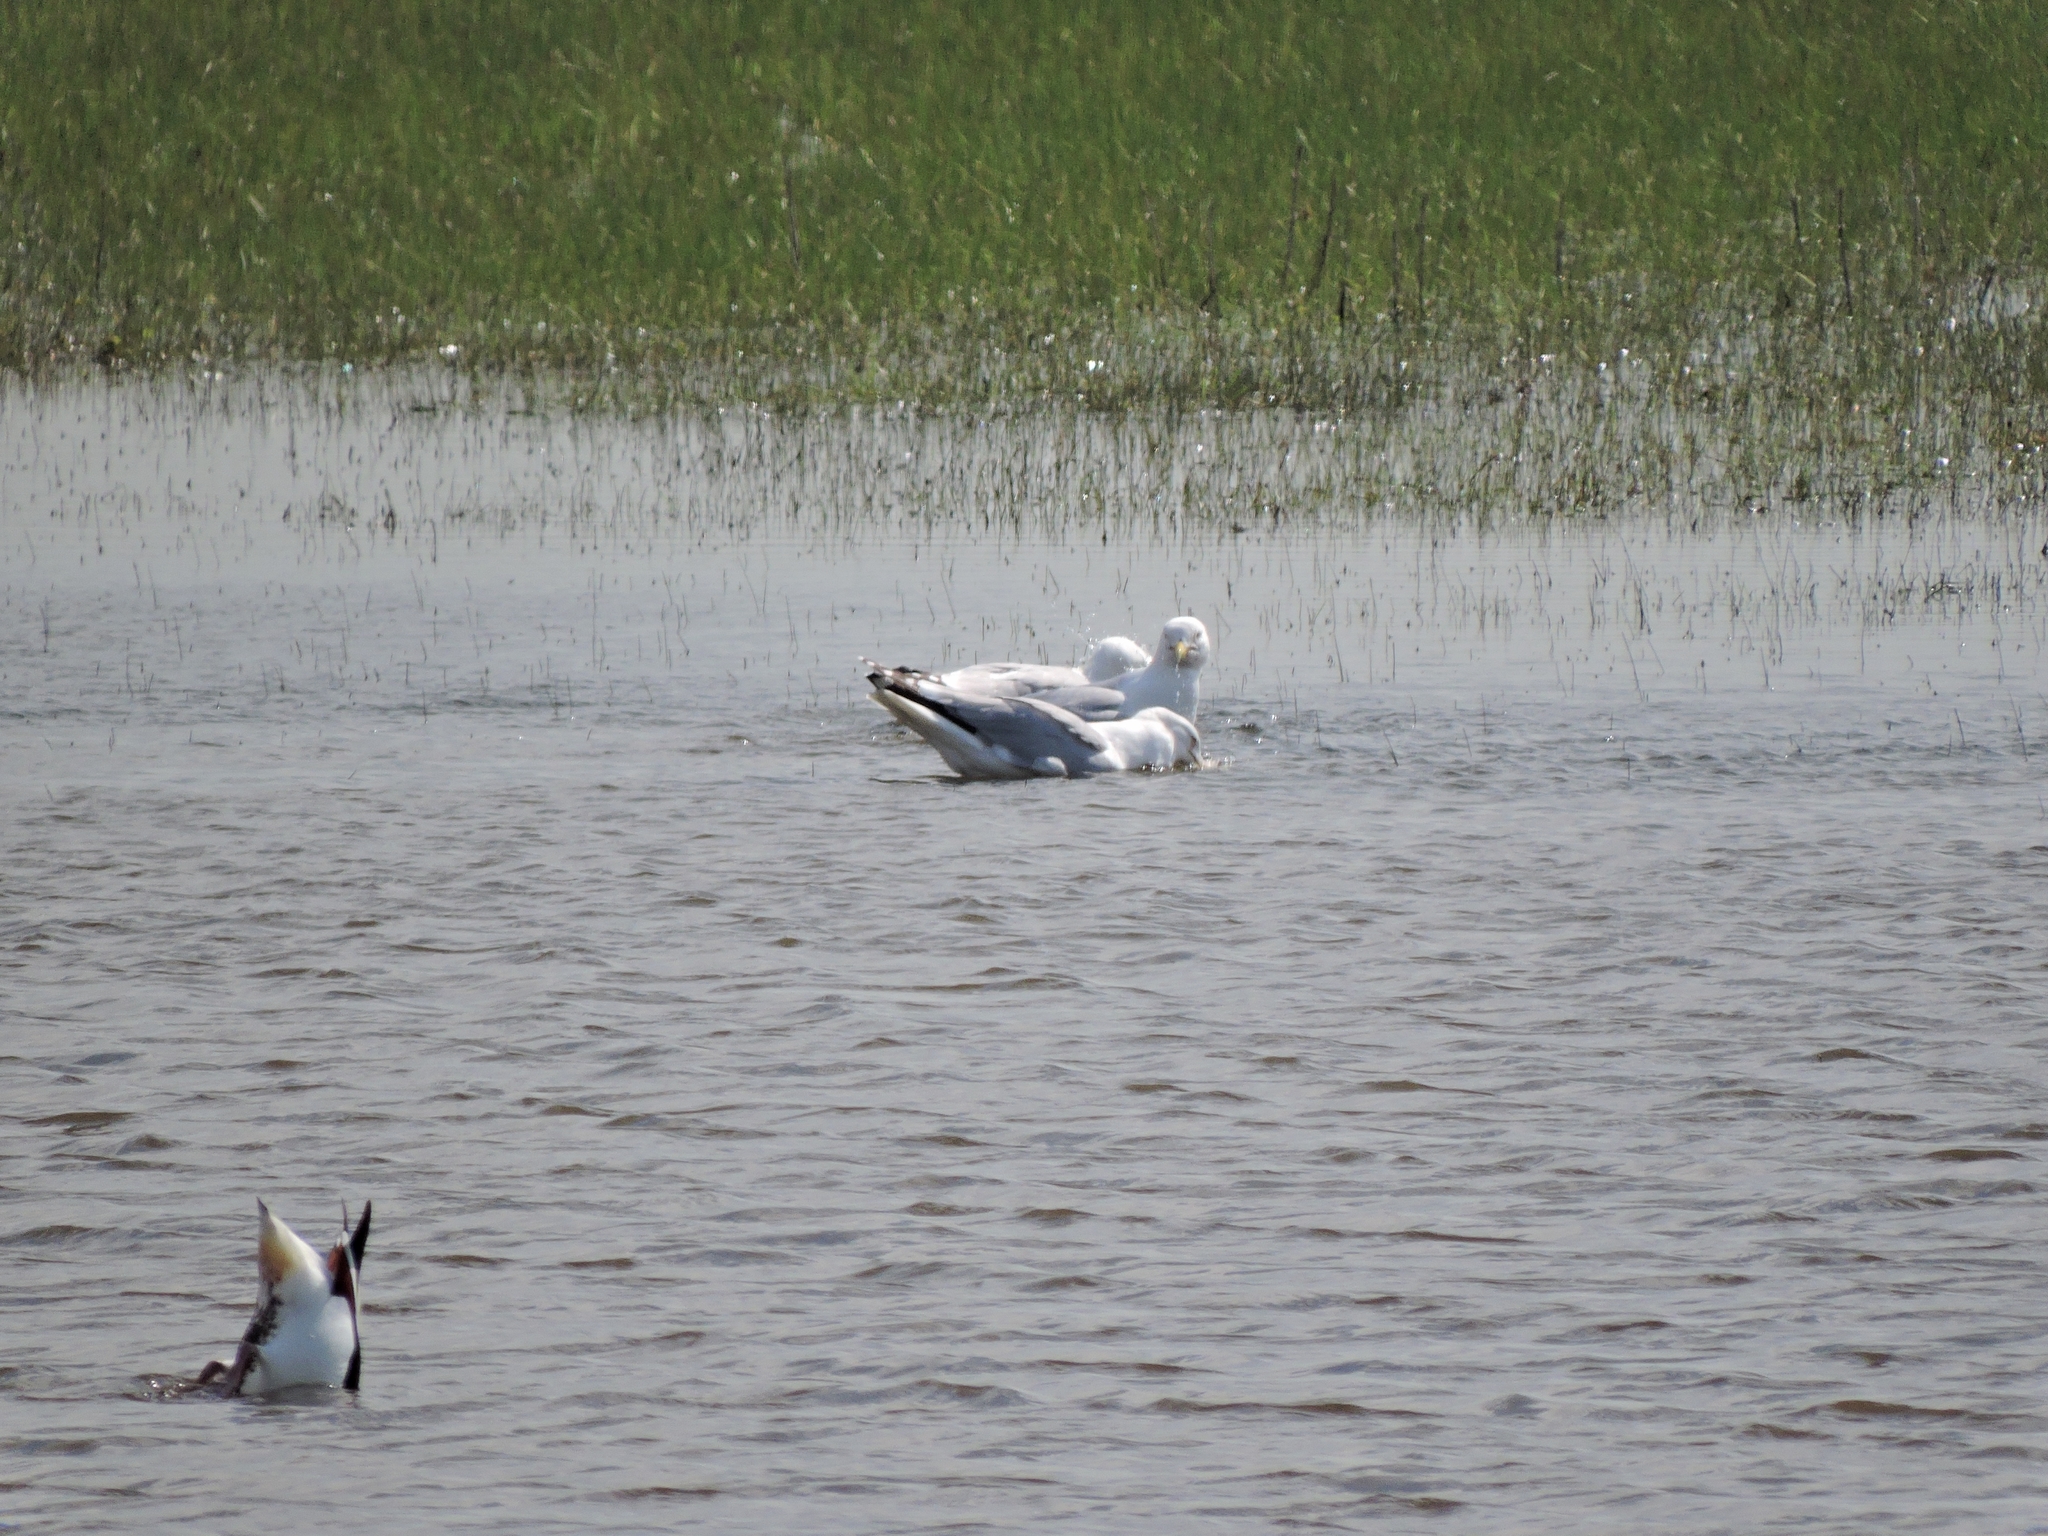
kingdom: Animalia
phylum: Chordata
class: Aves
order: Charadriiformes
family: Laridae
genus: Larus
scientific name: Larus argentatus
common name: Herring gull
